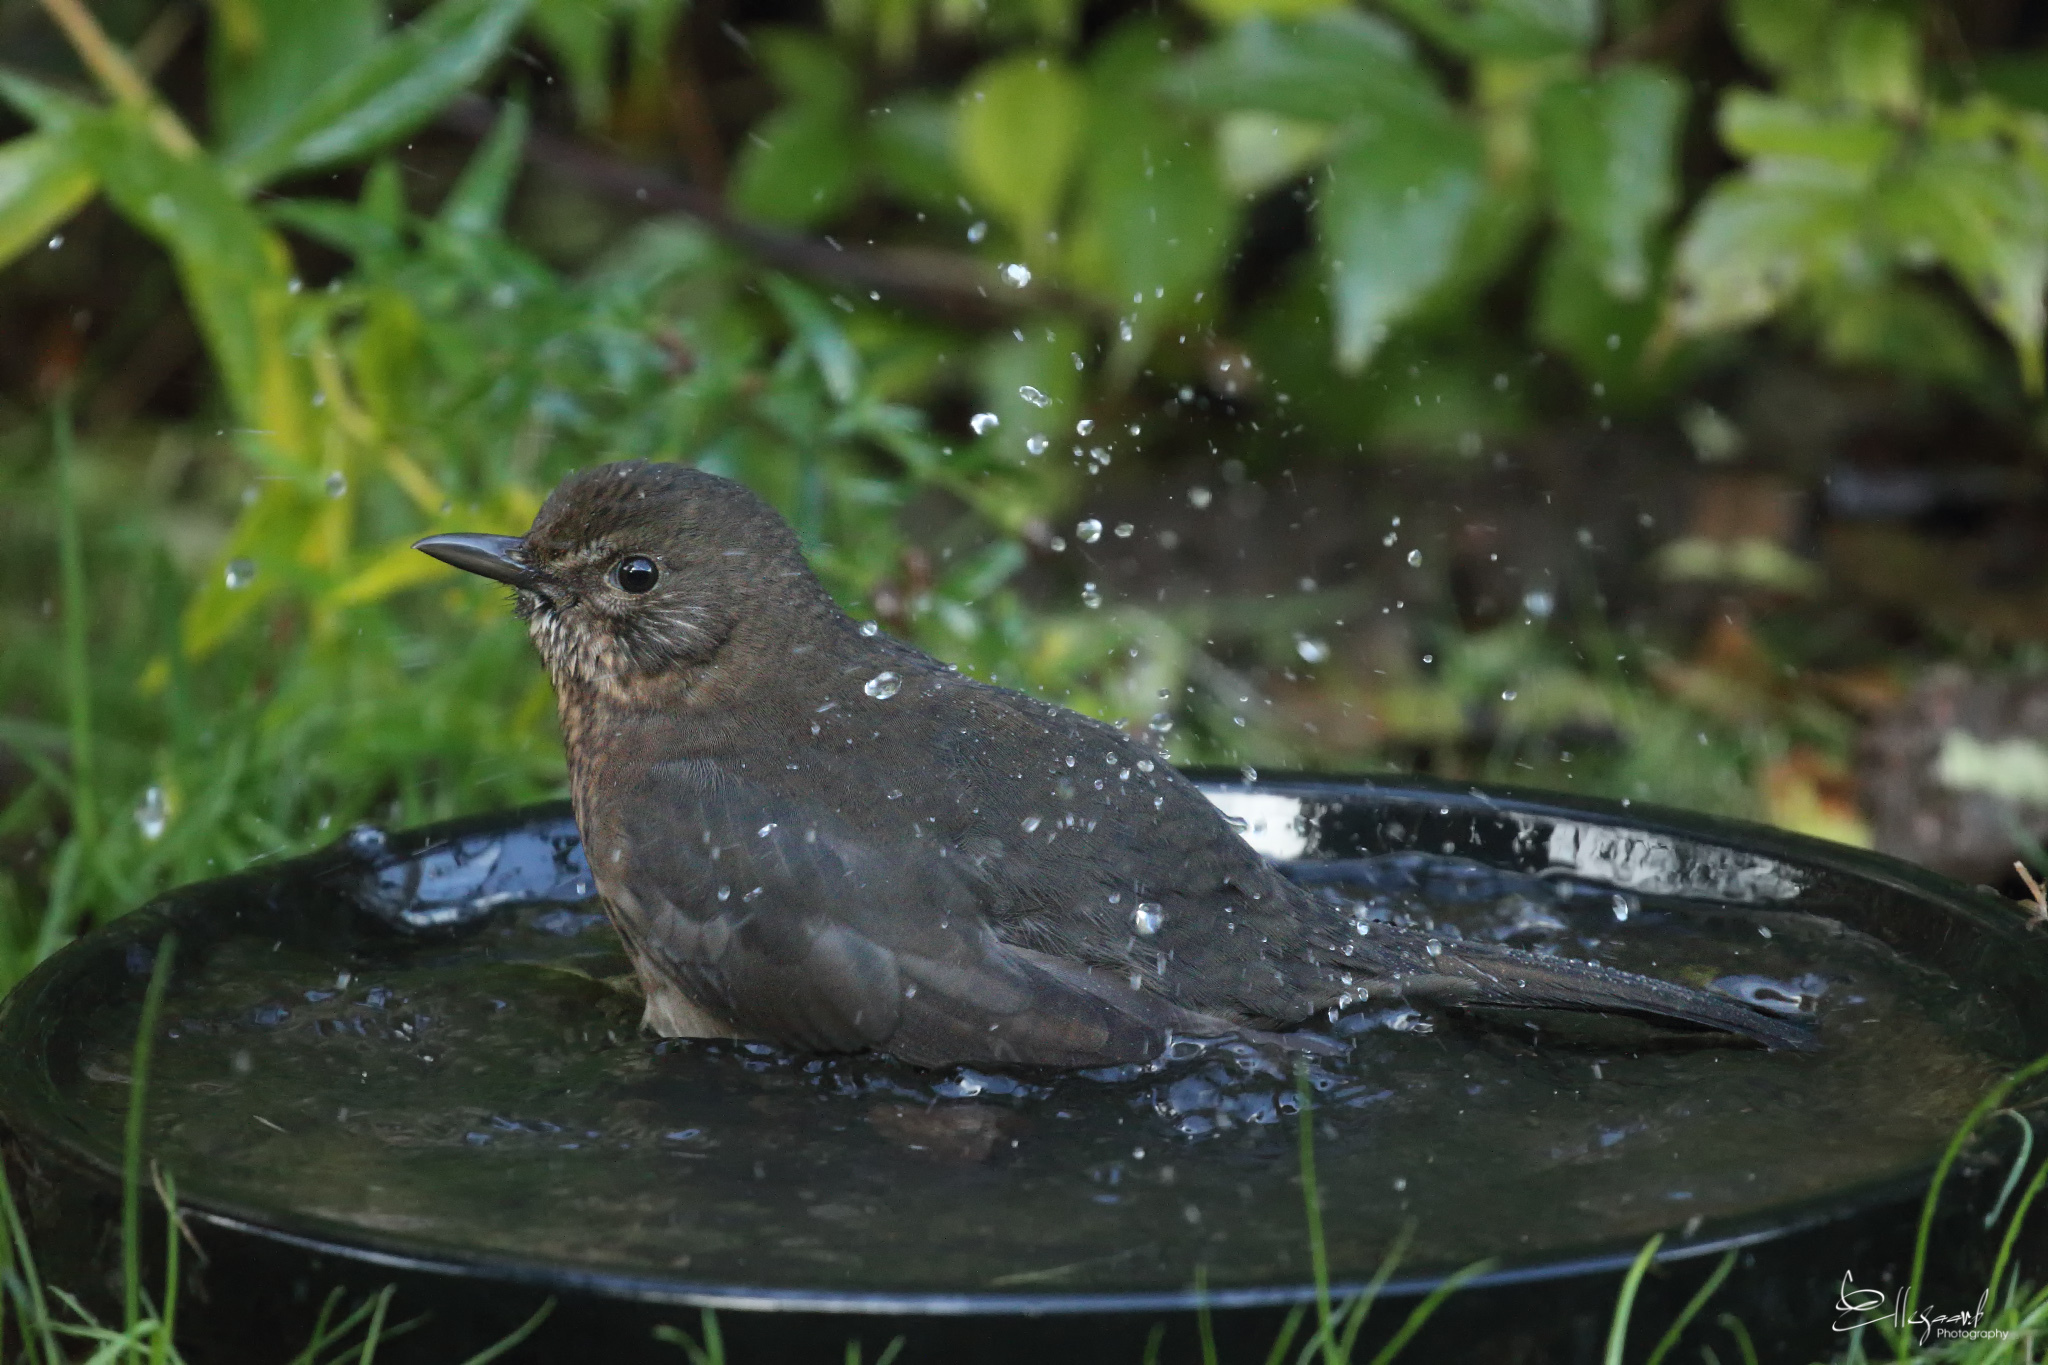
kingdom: Animalia
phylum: Chordata
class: Aves
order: Passeriformes
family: Turdidae
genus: Turdus
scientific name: Turdus merula
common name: Common blackbird
